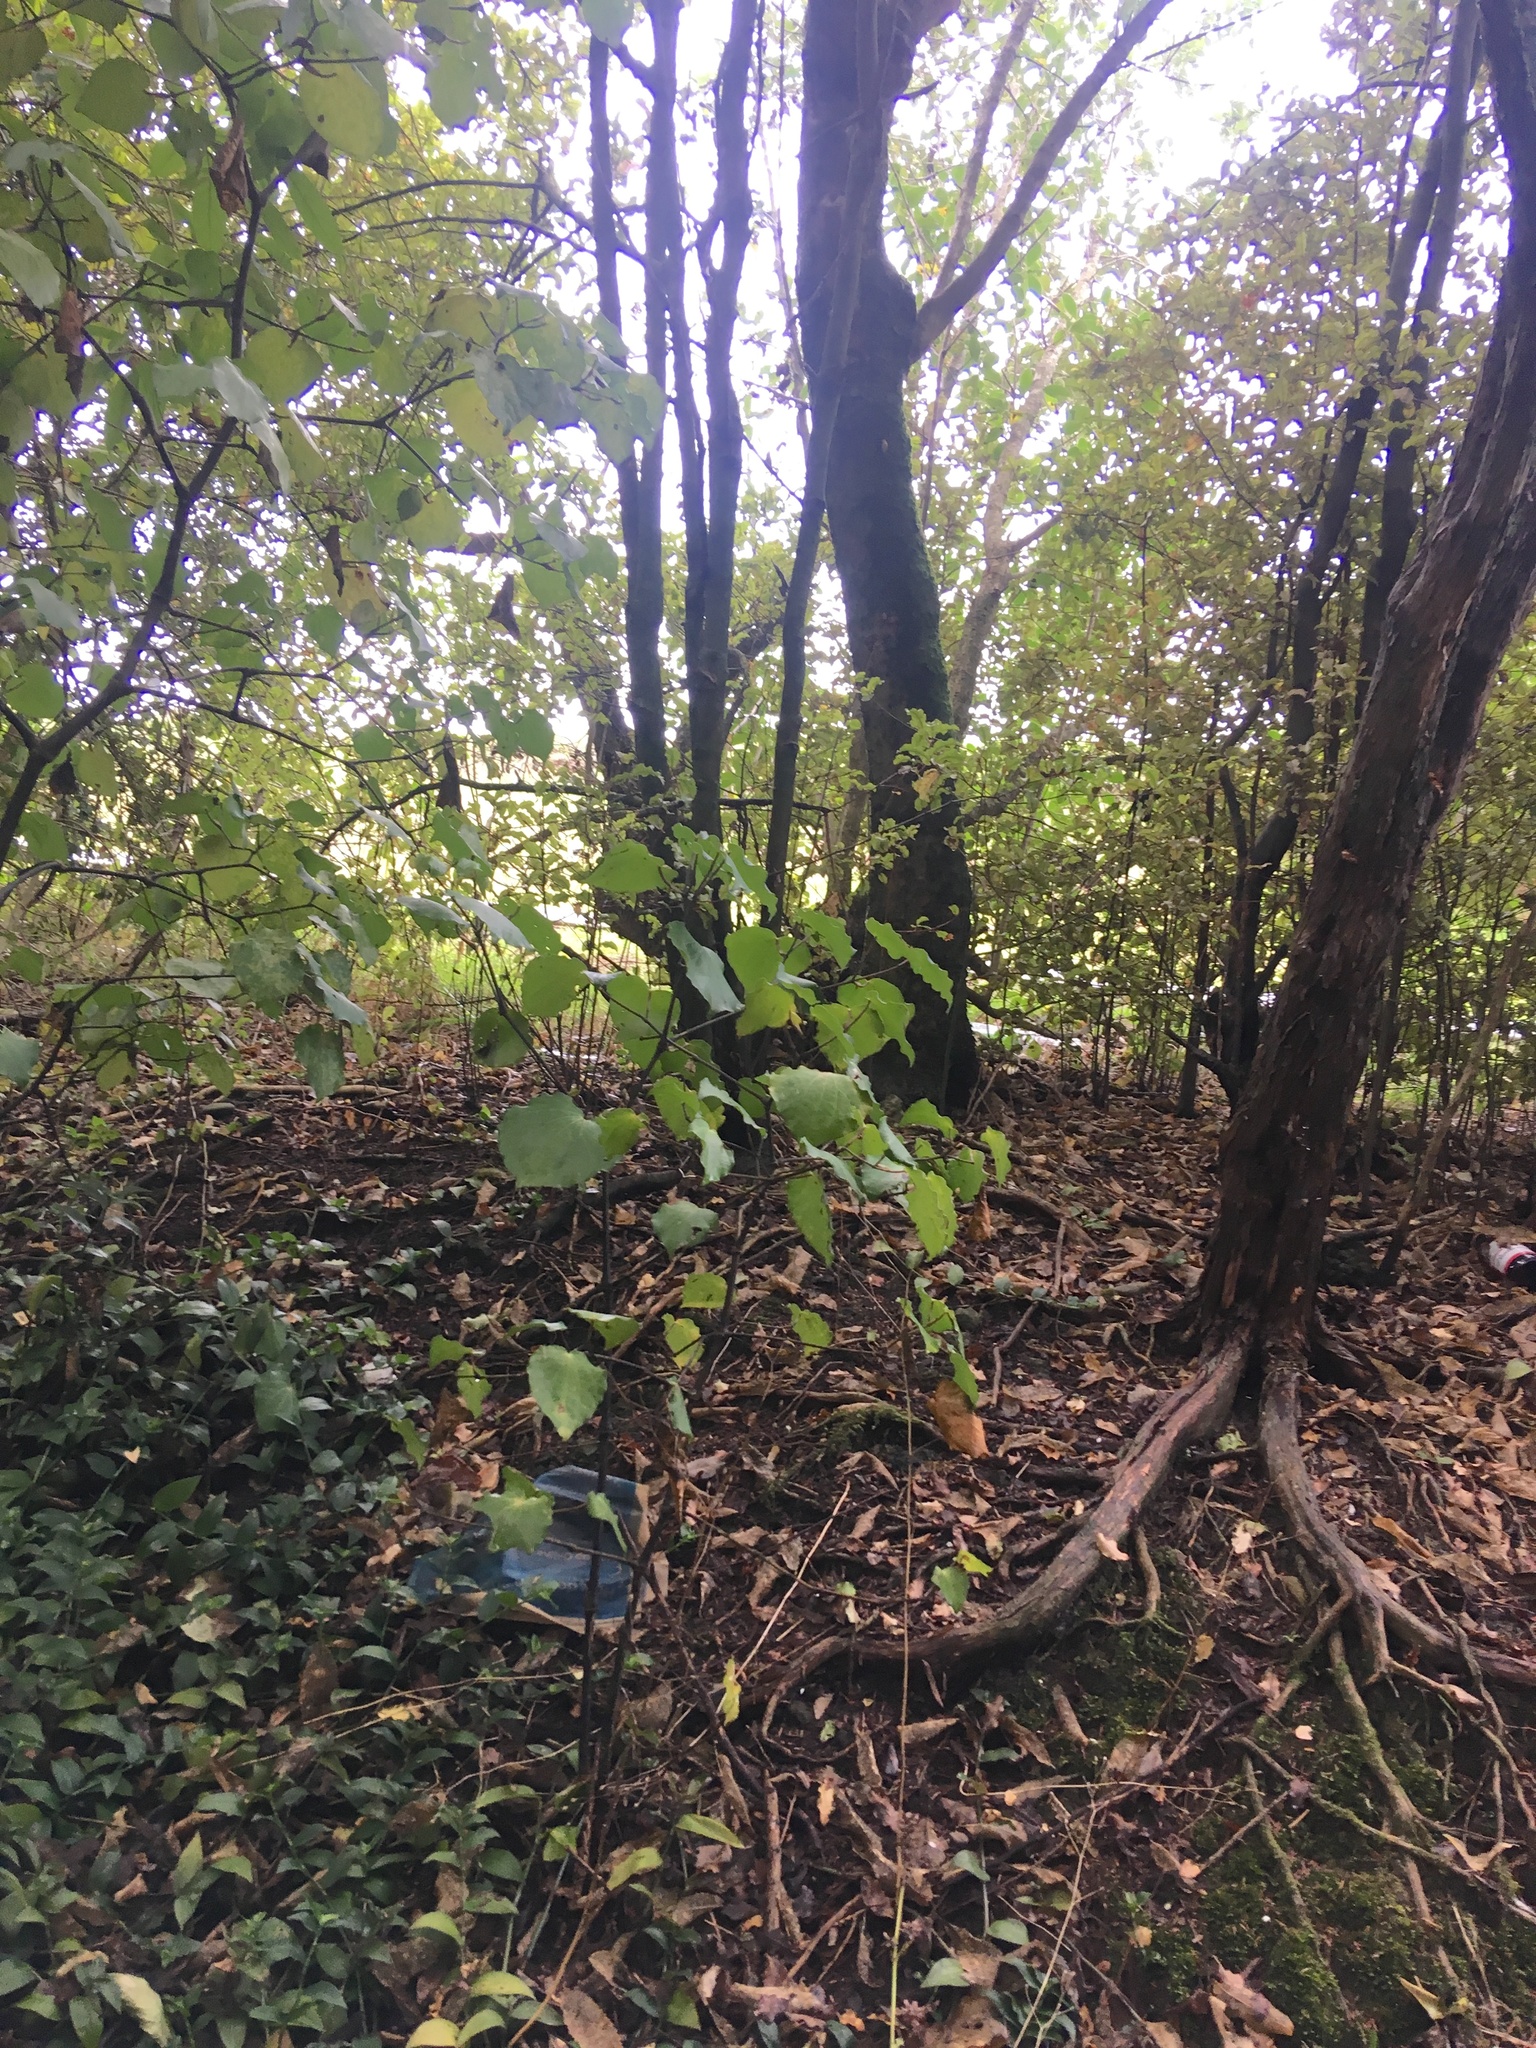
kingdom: Plantae
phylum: Tracheophyta
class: Magnoliopsida
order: Piperales
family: Piperaceae
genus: Macropiper
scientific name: Macropiper excelsum
